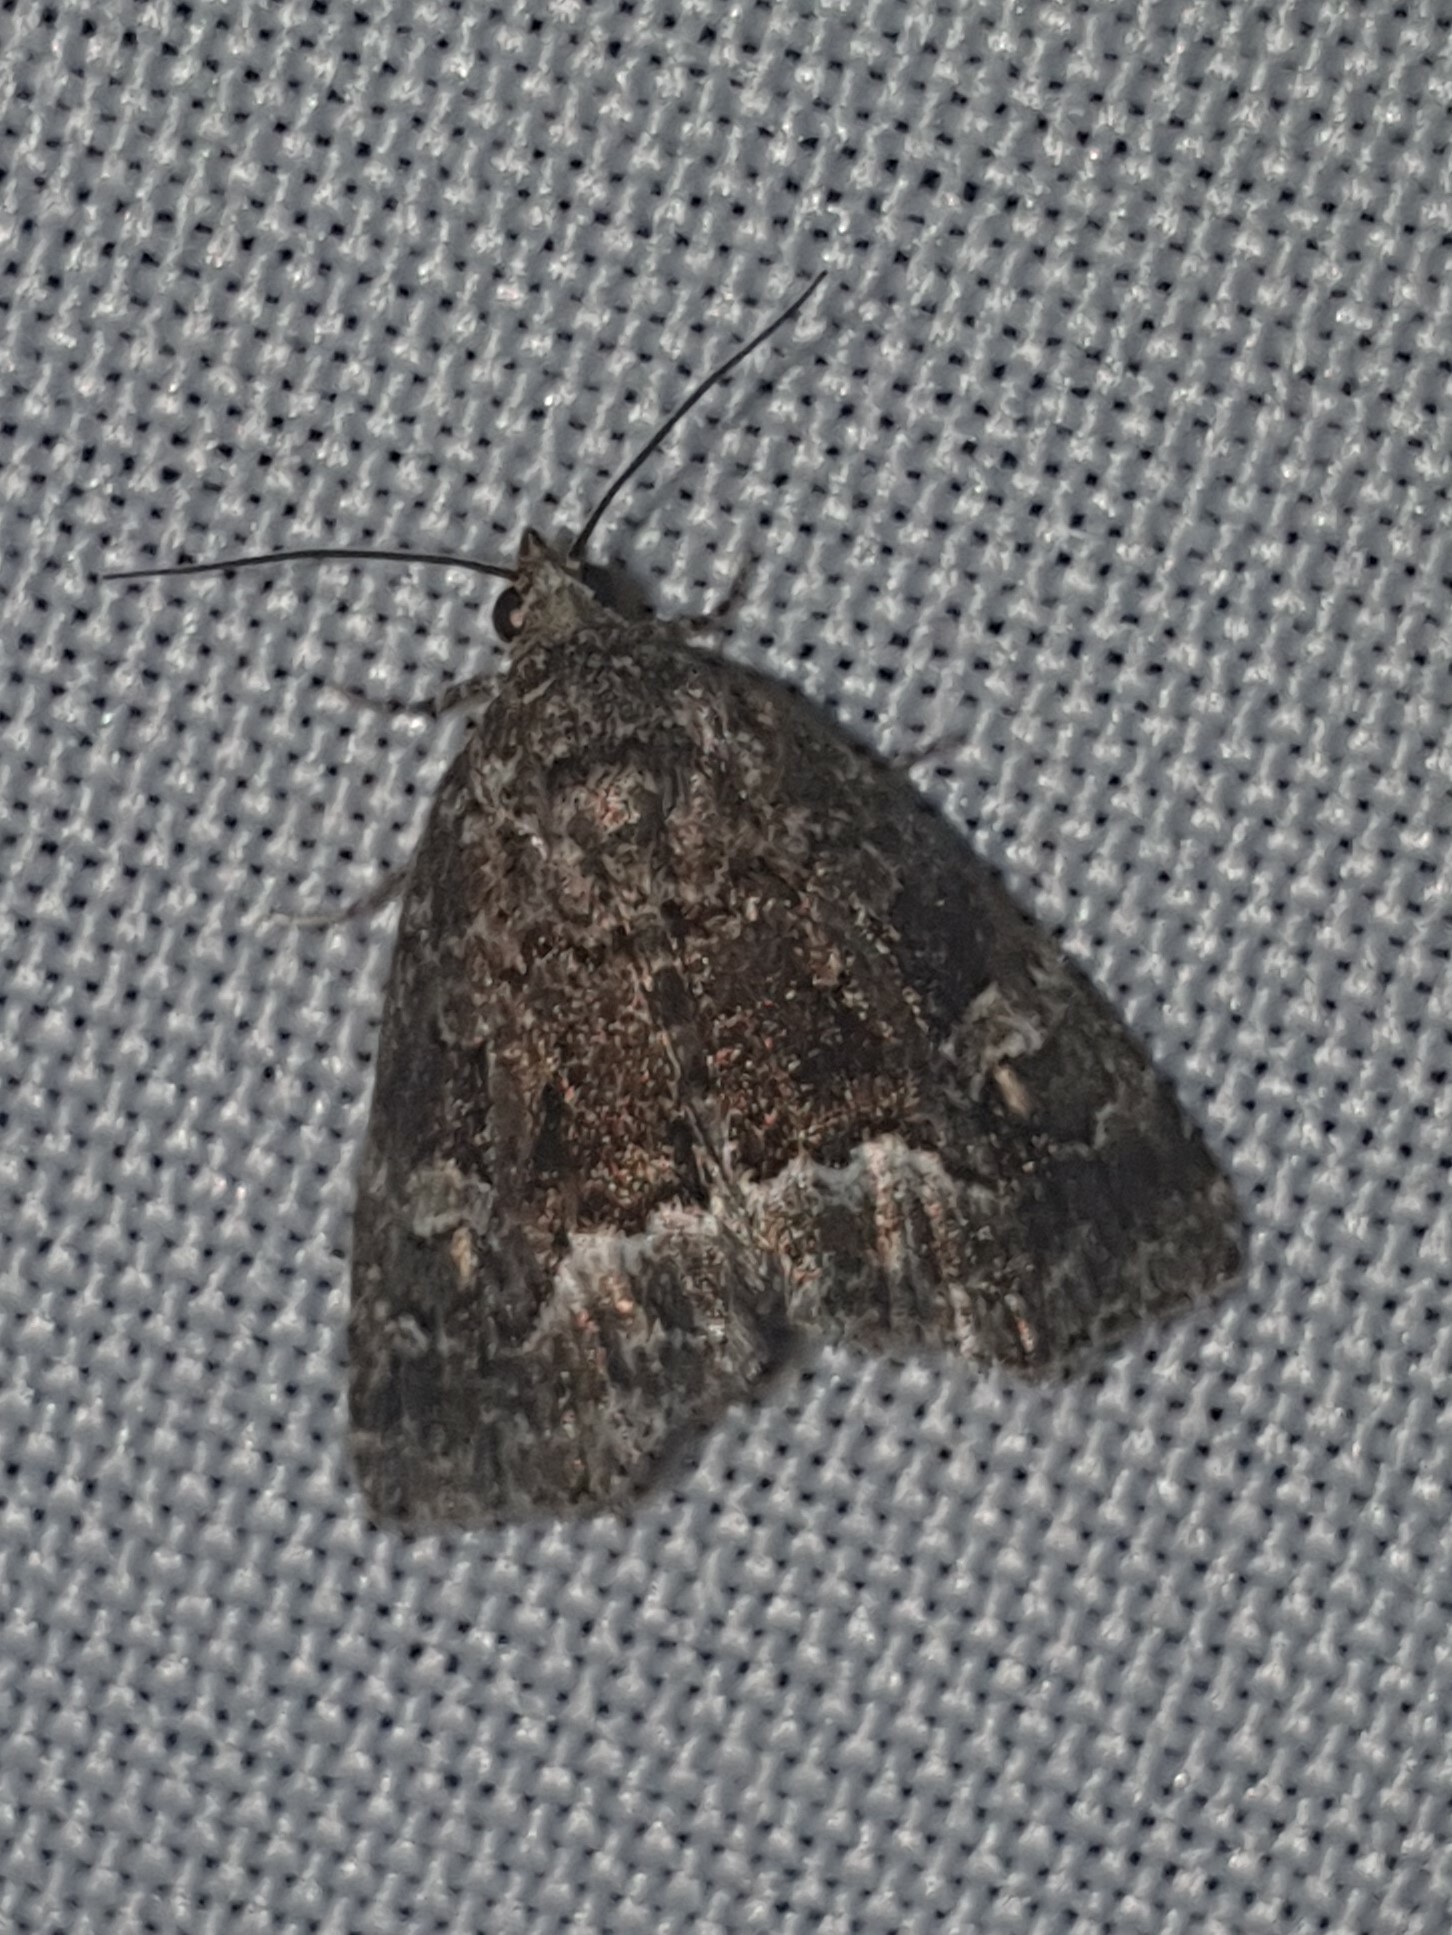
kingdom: Animalia
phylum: Arthropoda
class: Insecta
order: Lepidoptera
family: Noctuidae
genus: Deltote
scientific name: Deltote pygarga
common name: Marbled white spot
